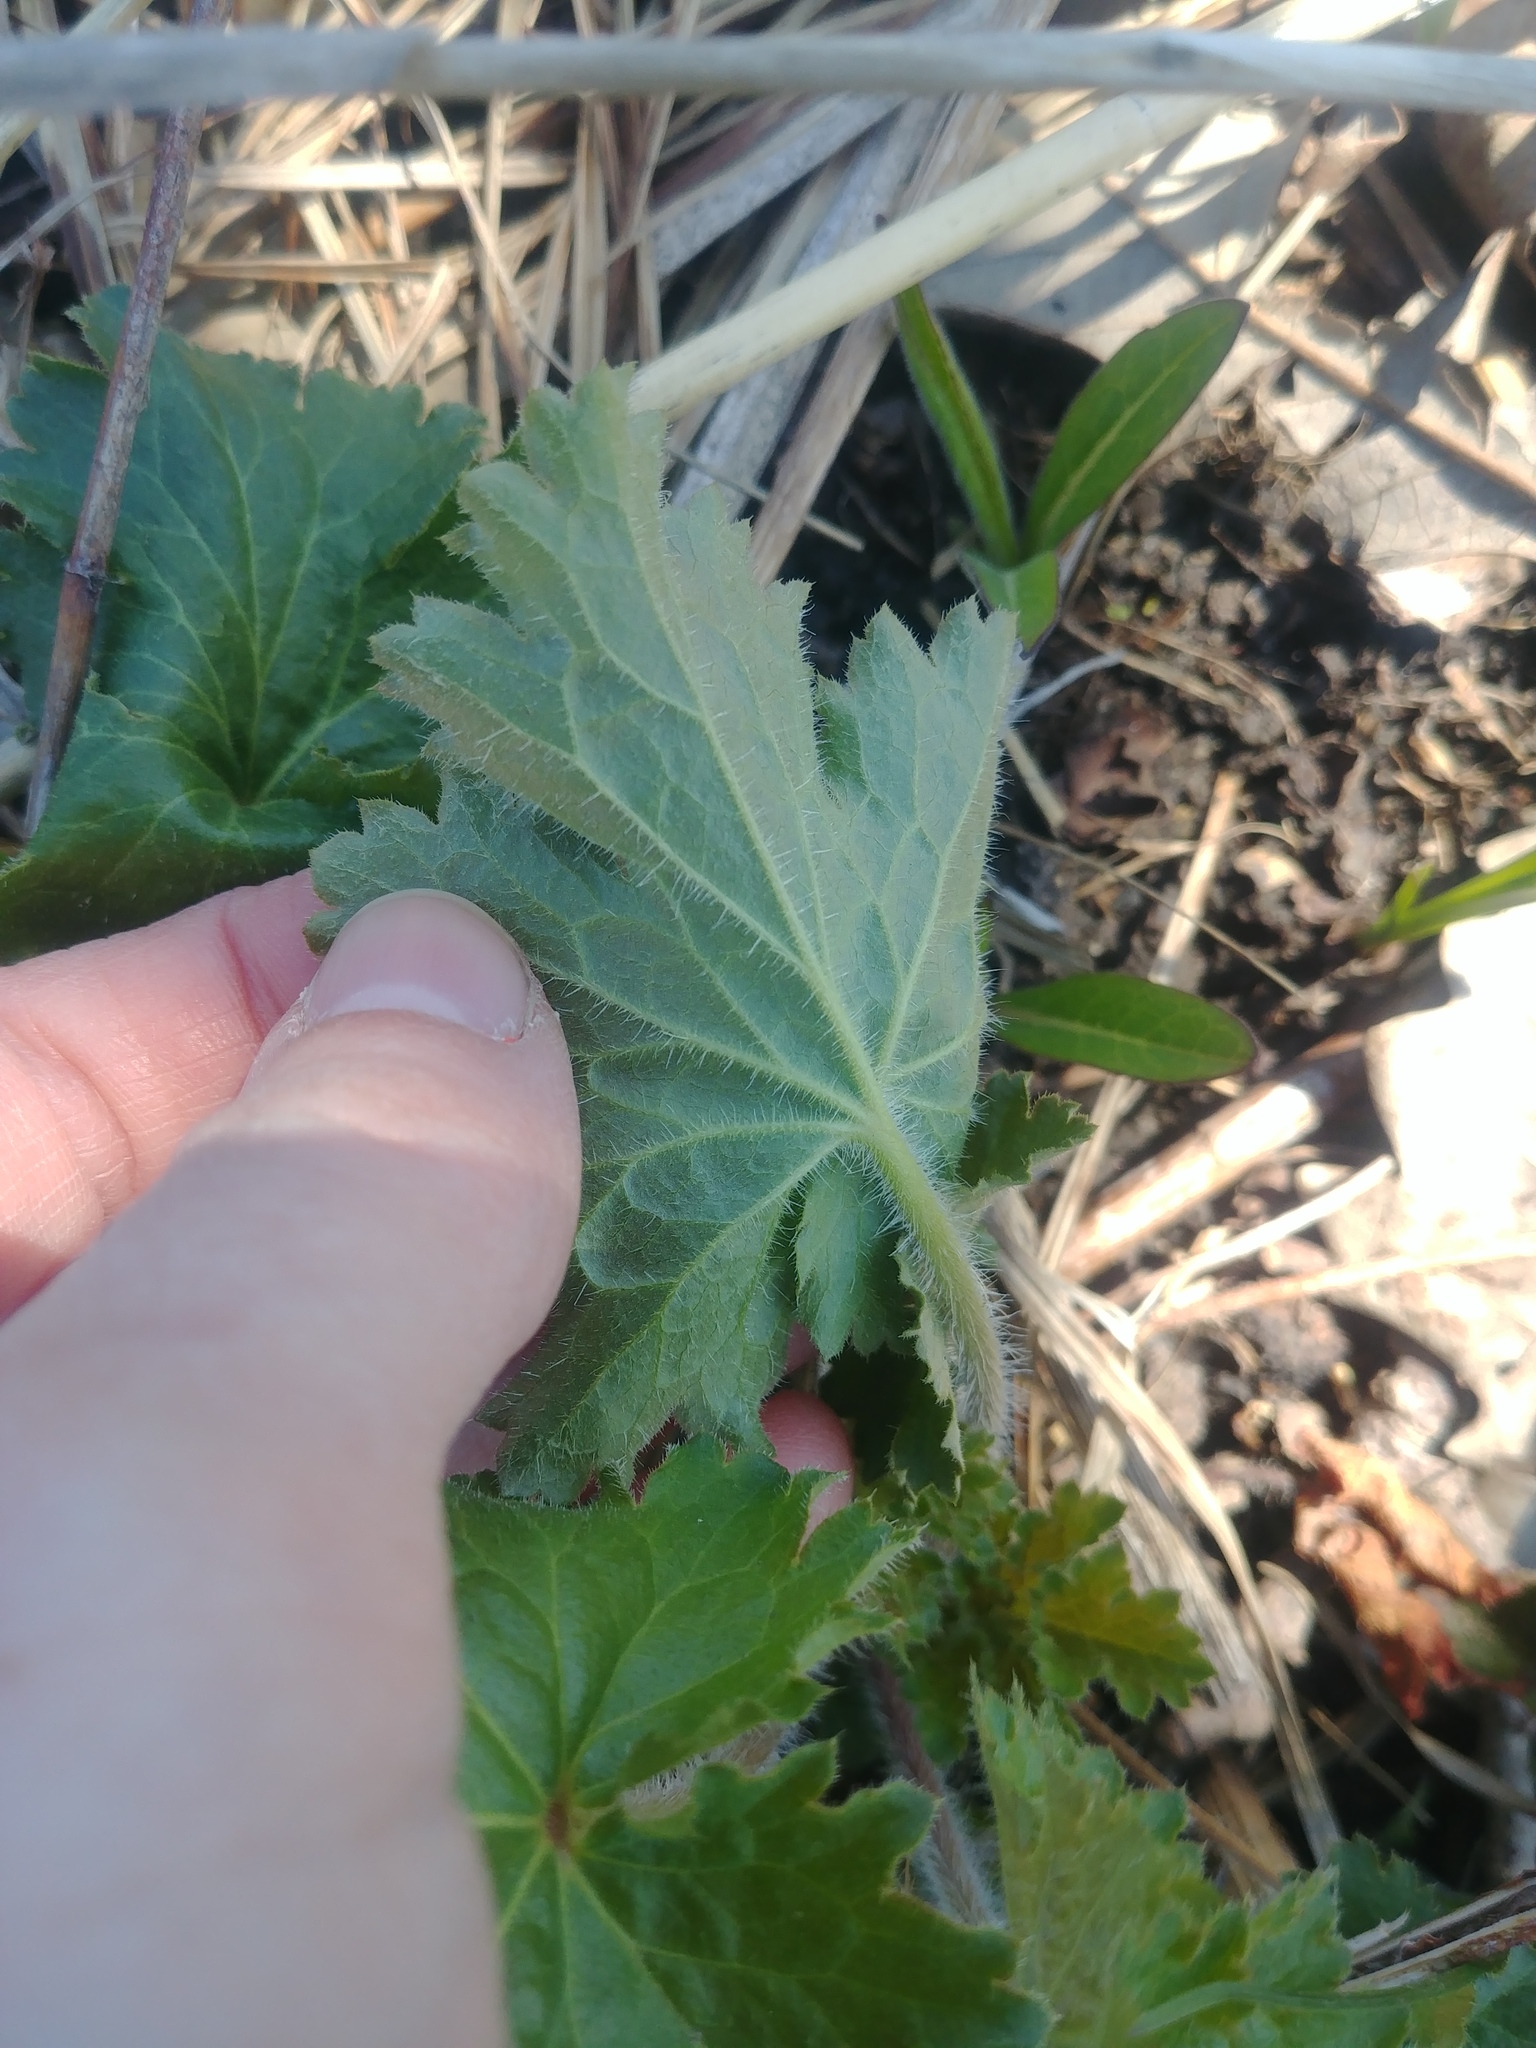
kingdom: Plantae
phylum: Tracheophyta
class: Magnoliopsida
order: Saxifragales
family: Saxifragaceae
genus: Heuchera
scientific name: Heuchera richardsonii
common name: Richardson's alumroot
